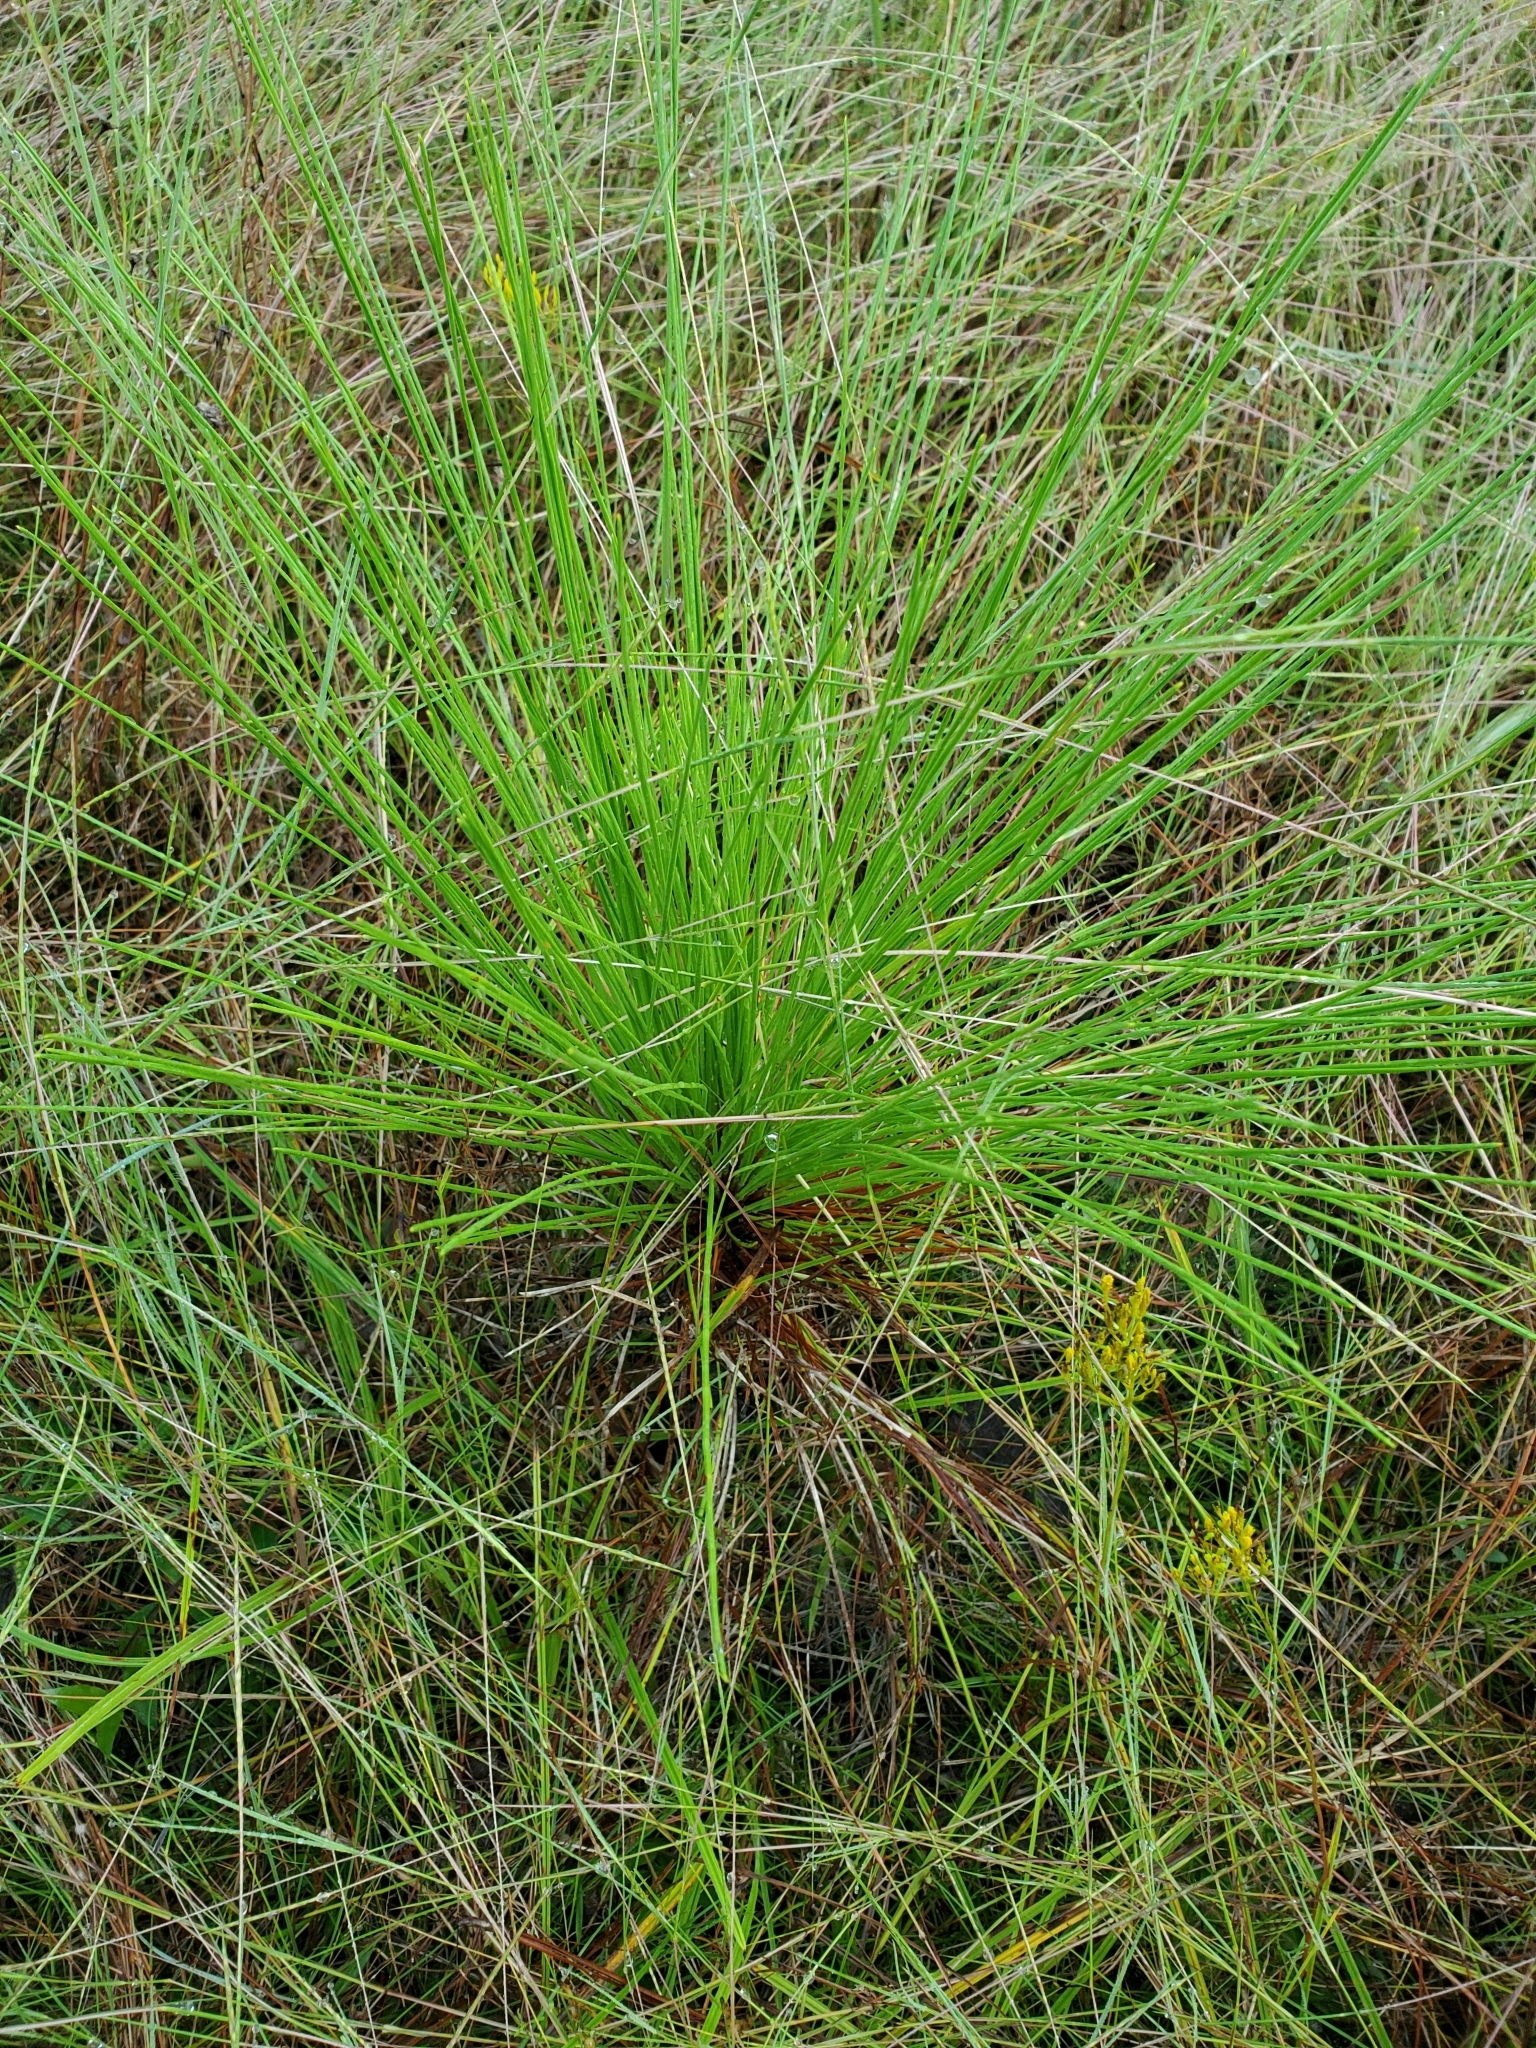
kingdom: Plantae
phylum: Tracheophyta
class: Pinopsida
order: Pinales
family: Pinaceae
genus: Pinus
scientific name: Pinus palustris
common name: Longleaf pine
